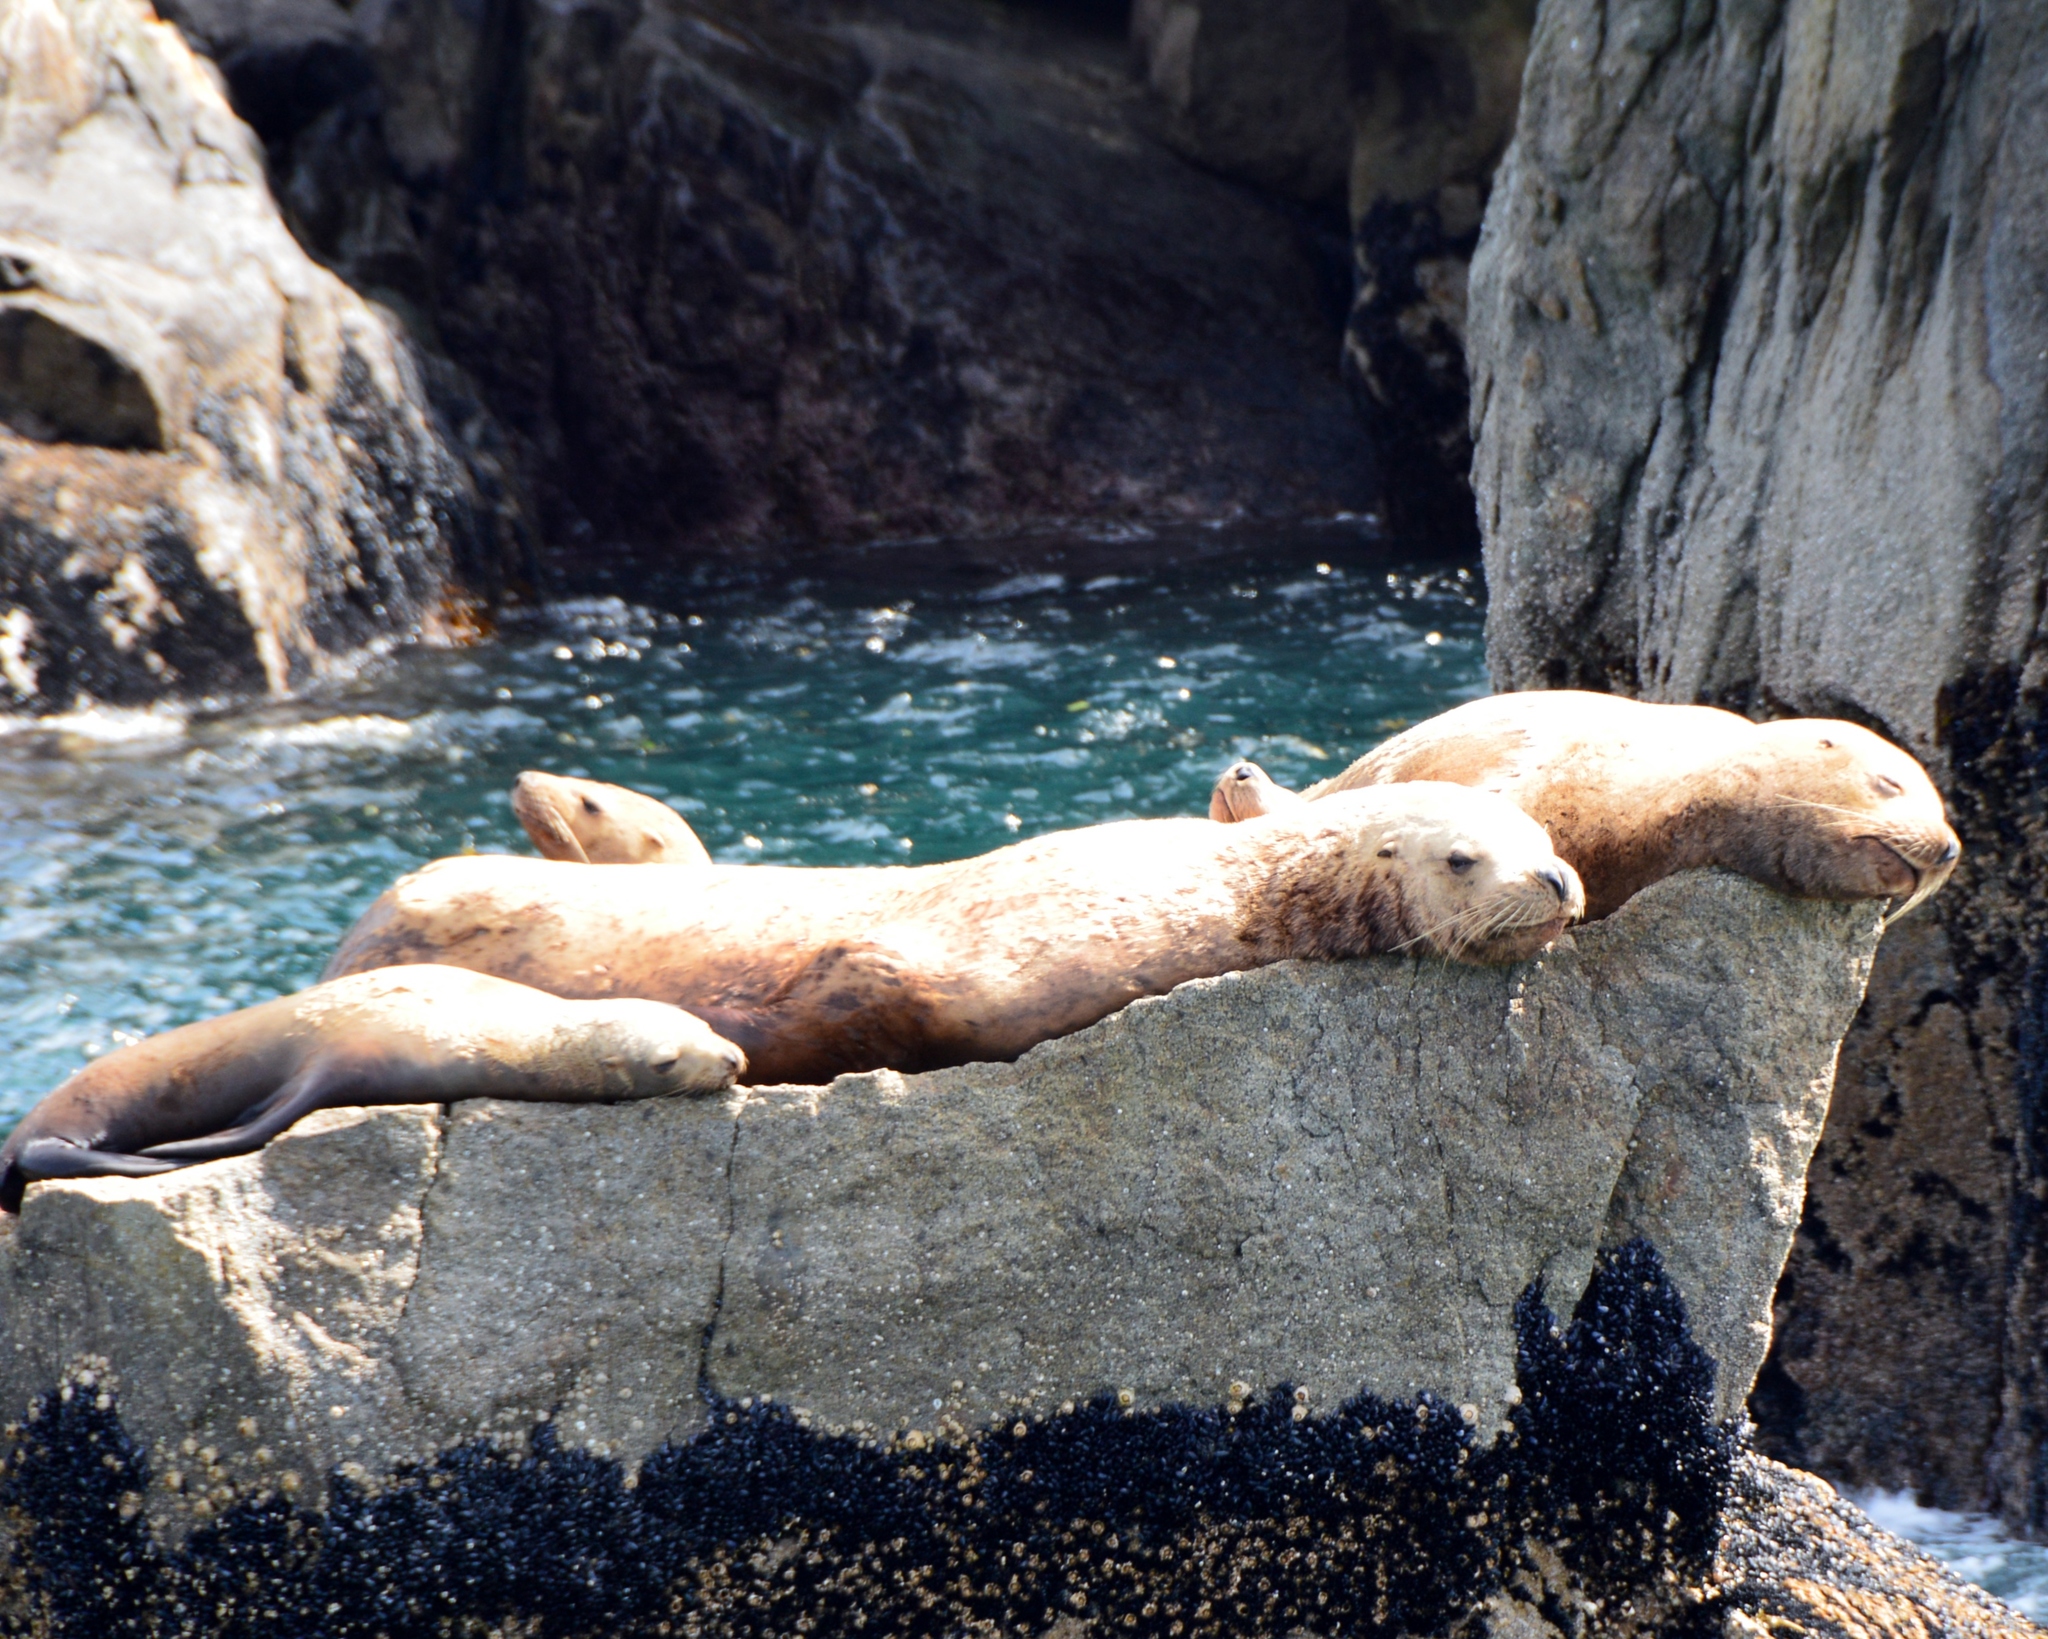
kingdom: Animalia
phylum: Chordata
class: Mammalia
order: Carnivora
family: Otariidae
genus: Eumetopias
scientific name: Eumetopias jubatus
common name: Steller sea lion
